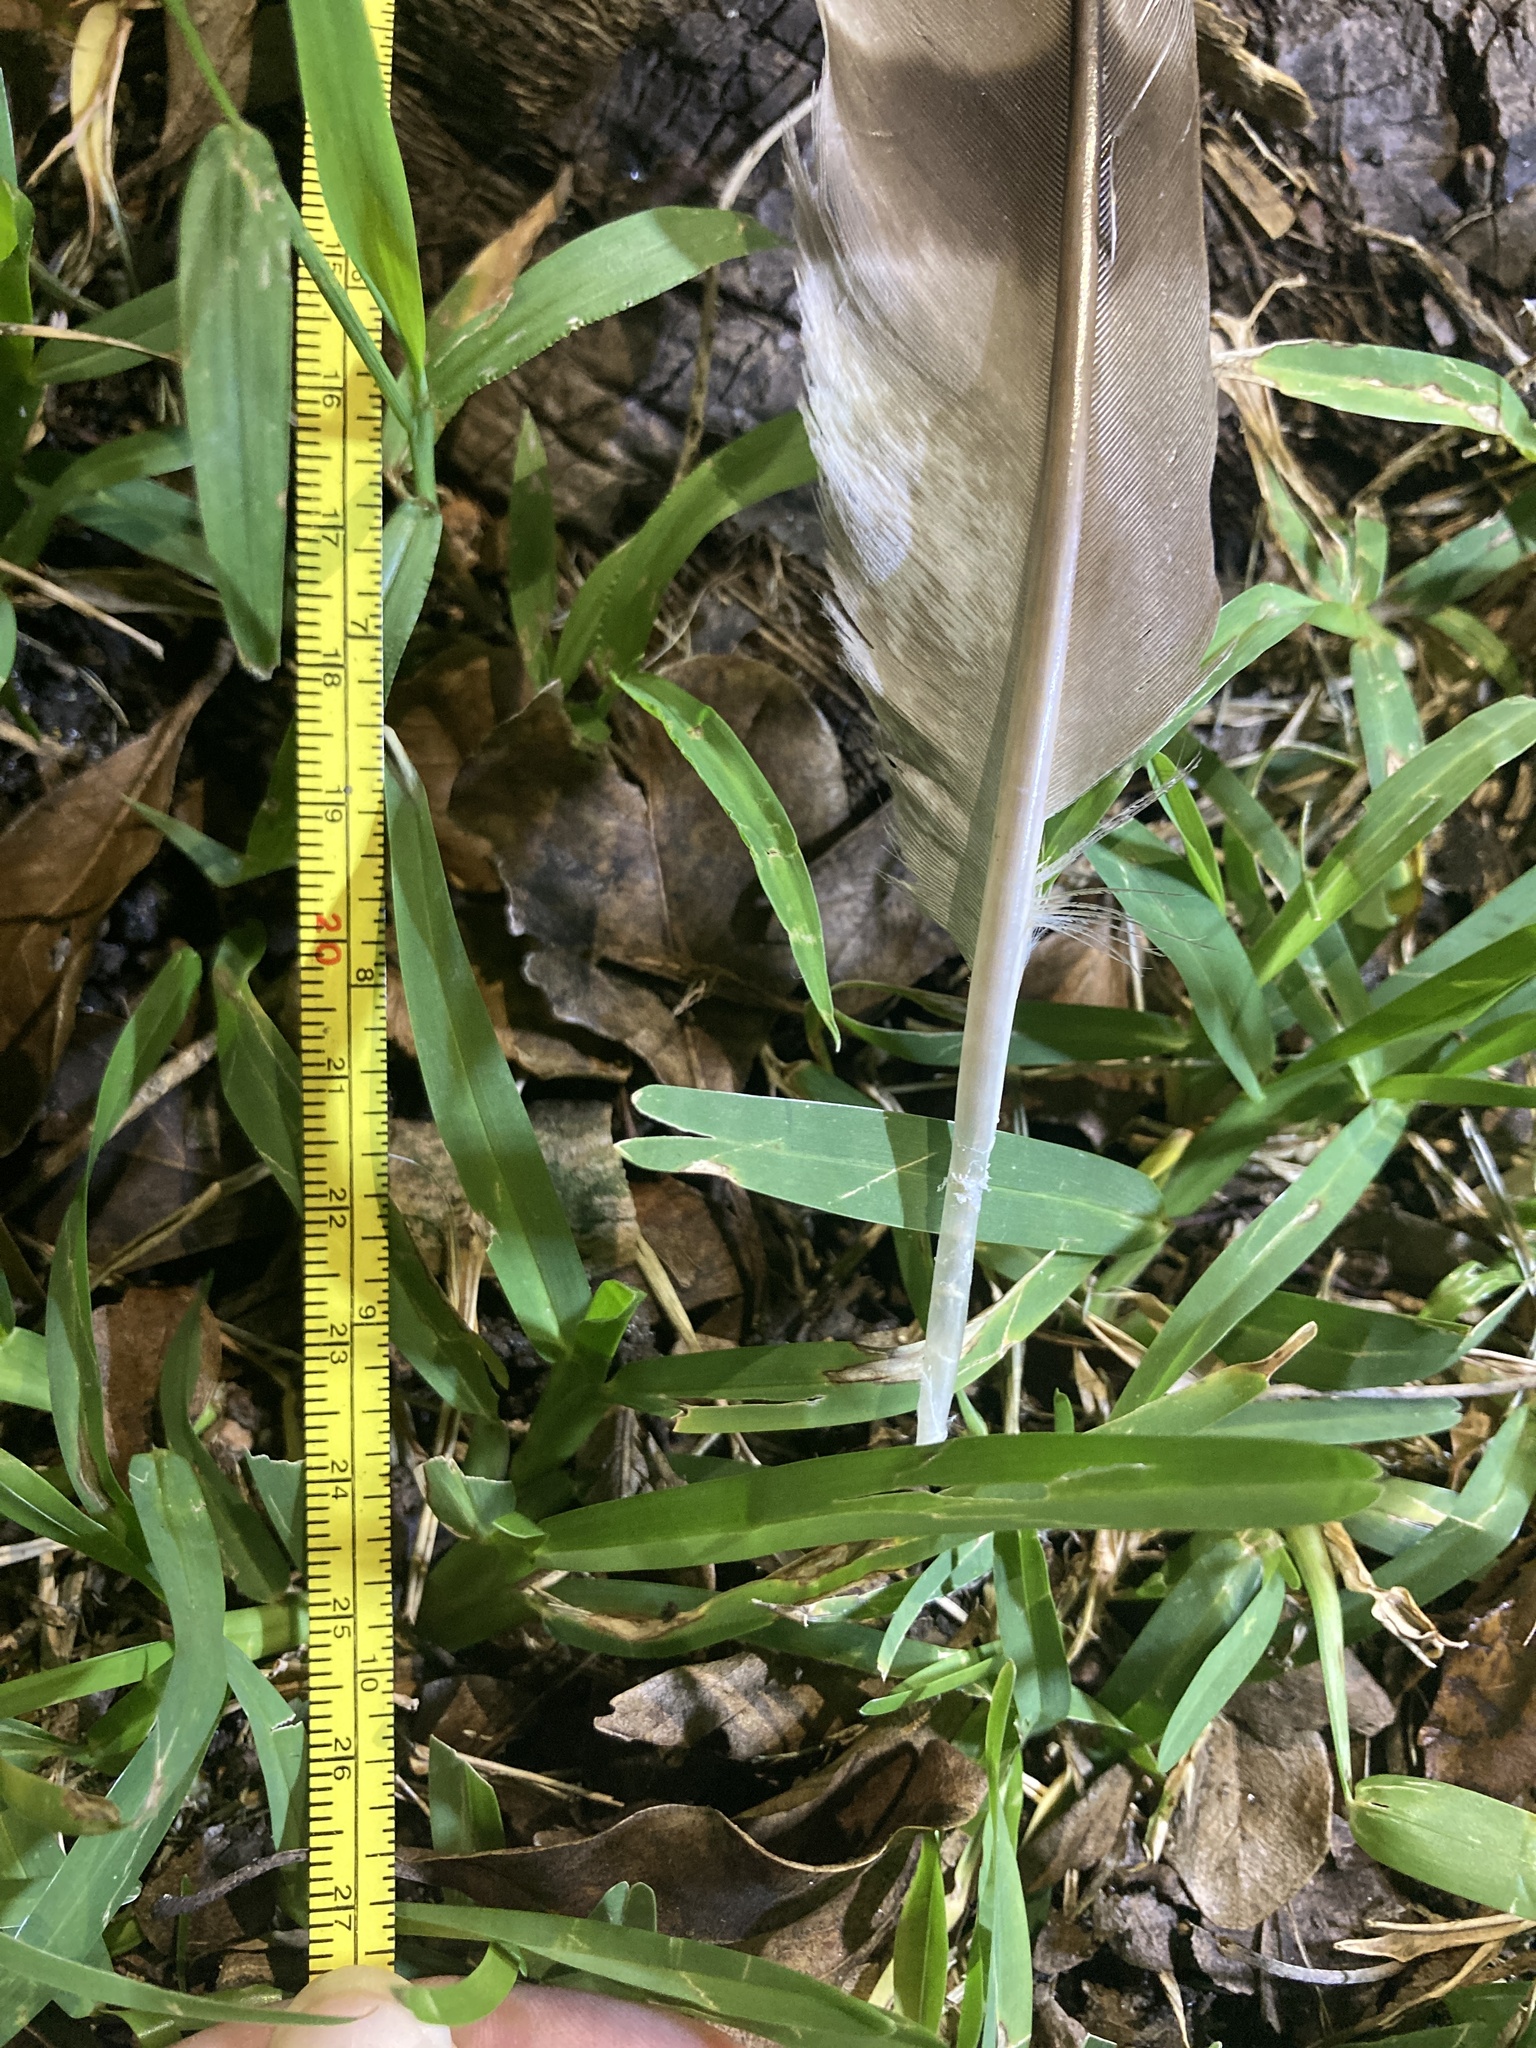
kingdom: Animalia
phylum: Chordata
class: Aves
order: Accipitriformes
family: Accipitridae
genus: Accipiter
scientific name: Accipiter cooperii
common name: Cooper's hawk
